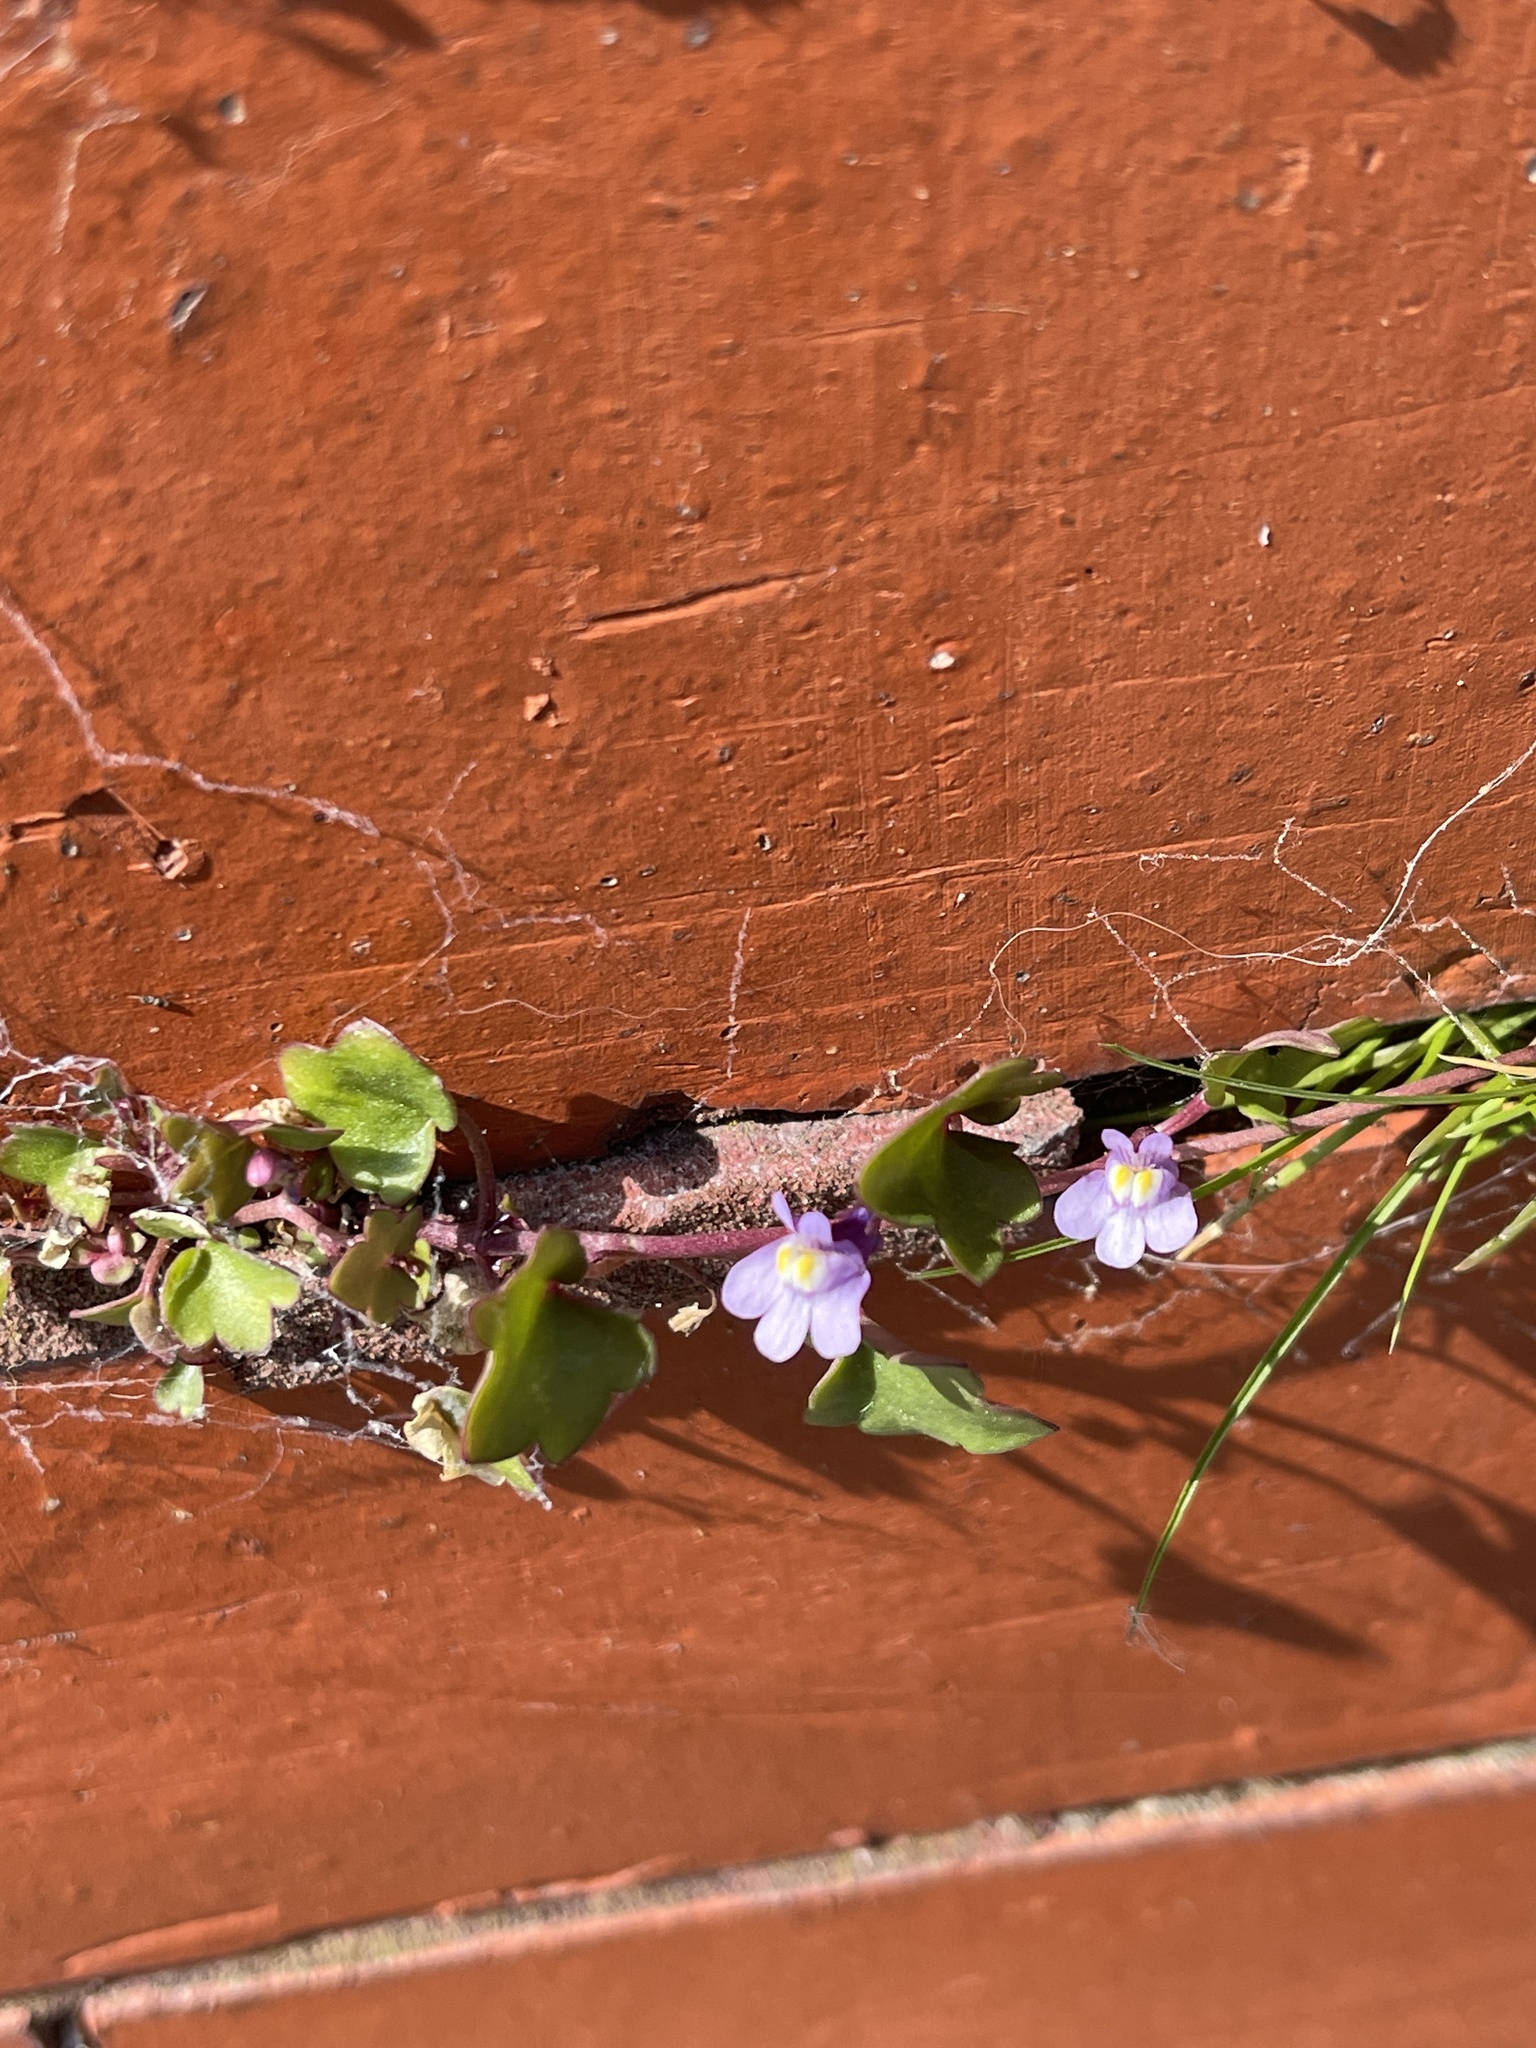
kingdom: Plantae
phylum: Tracheophyta
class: Magnoliopsida
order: Lamiales
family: Plantaginaceae
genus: Cymbalaria
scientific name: Cymbalaria muralis
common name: Ivy-leaved toadflax
